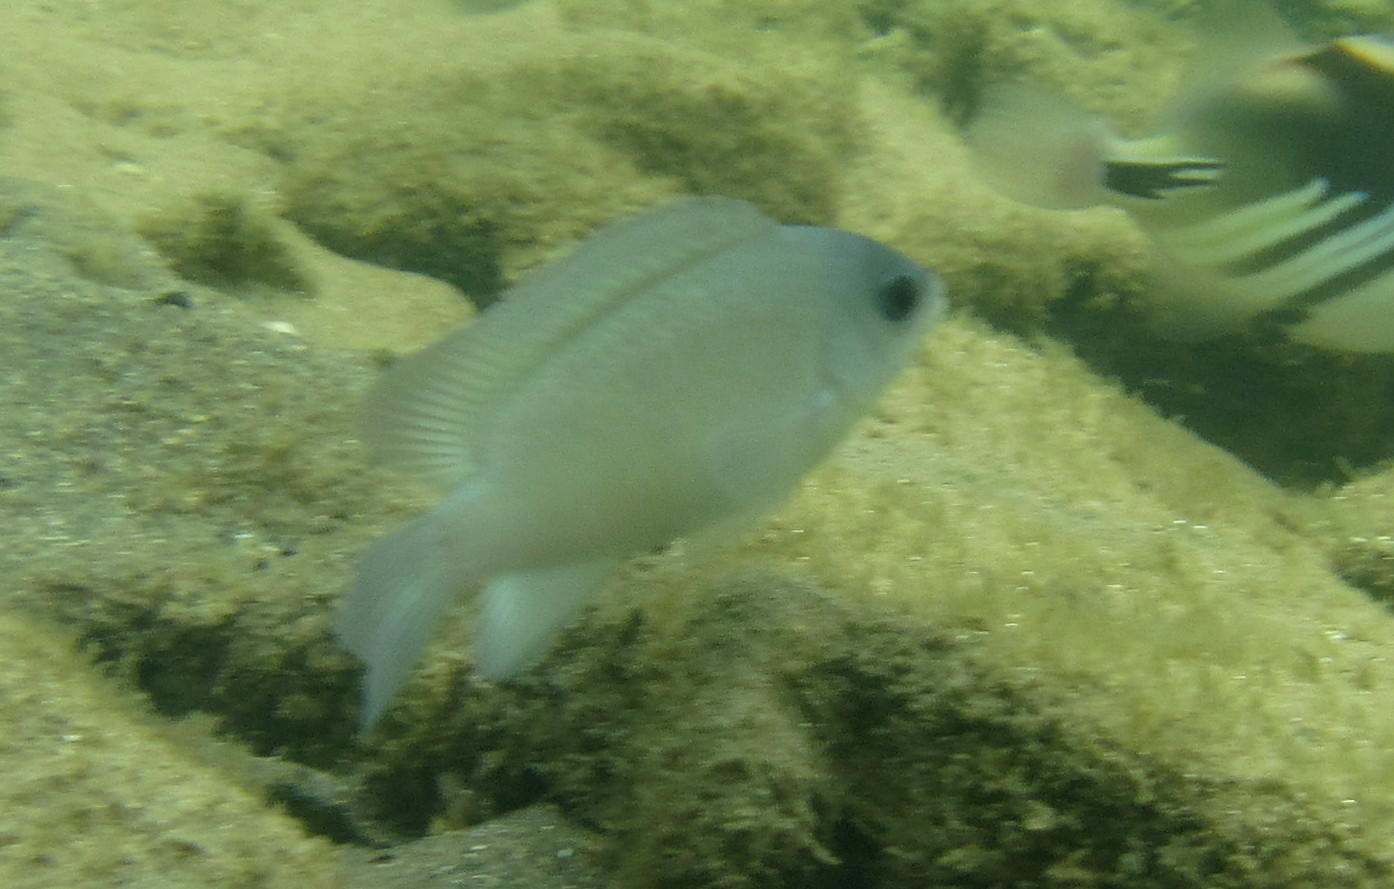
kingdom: Animalia
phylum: Chordata
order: Perciformes
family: Pomacentridae
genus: Chrysiptera
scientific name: Chrysiptera glauca
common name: Grey demoiselle
